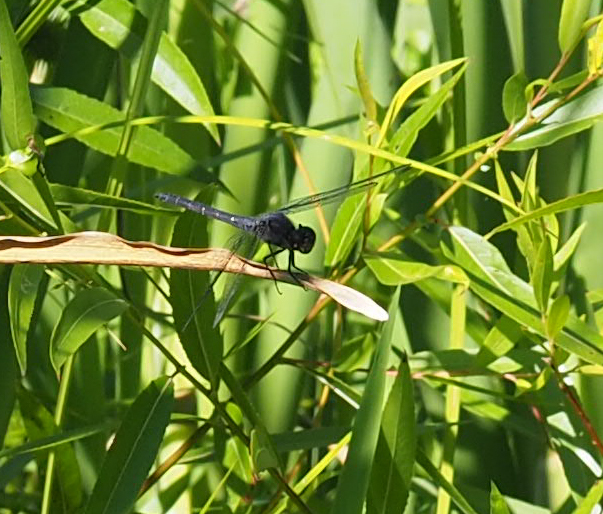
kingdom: Animalia
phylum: Arthropoda
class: Insecta
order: Odonata
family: Libellulidae
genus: Libellula
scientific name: Libellula incesta
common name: Slaty skimmer
